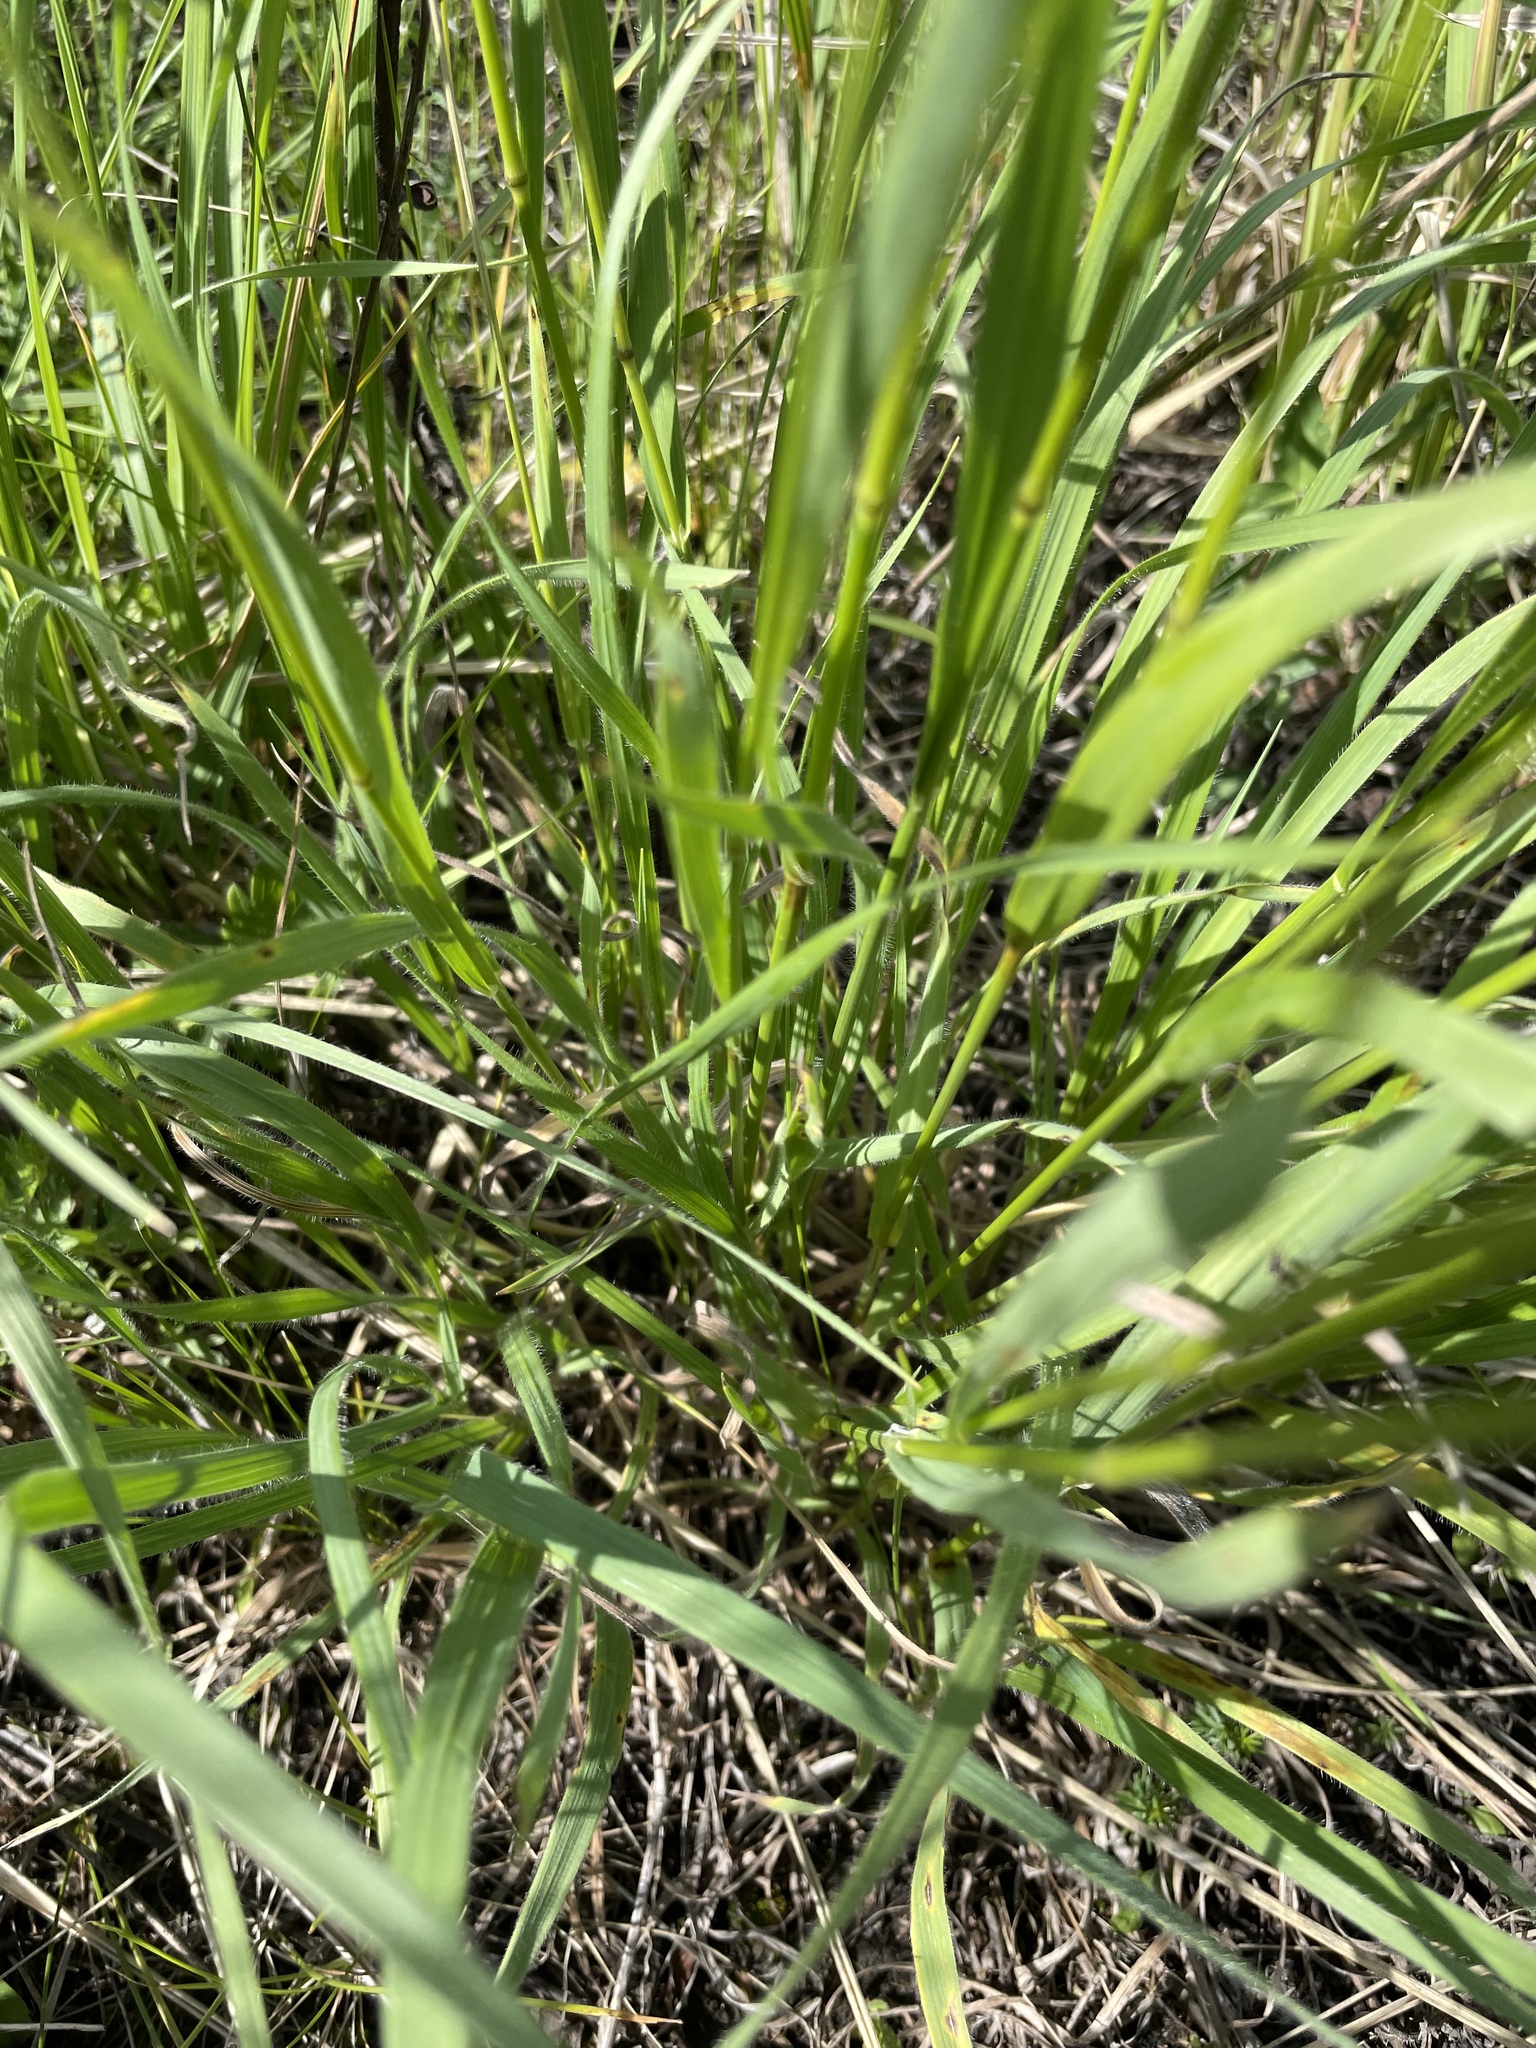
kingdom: Plantae
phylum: Tracheophyta
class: Liliopsida
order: Poales
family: Poaceae
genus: Bromus
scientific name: Bromus riparius
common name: Meadow brome
